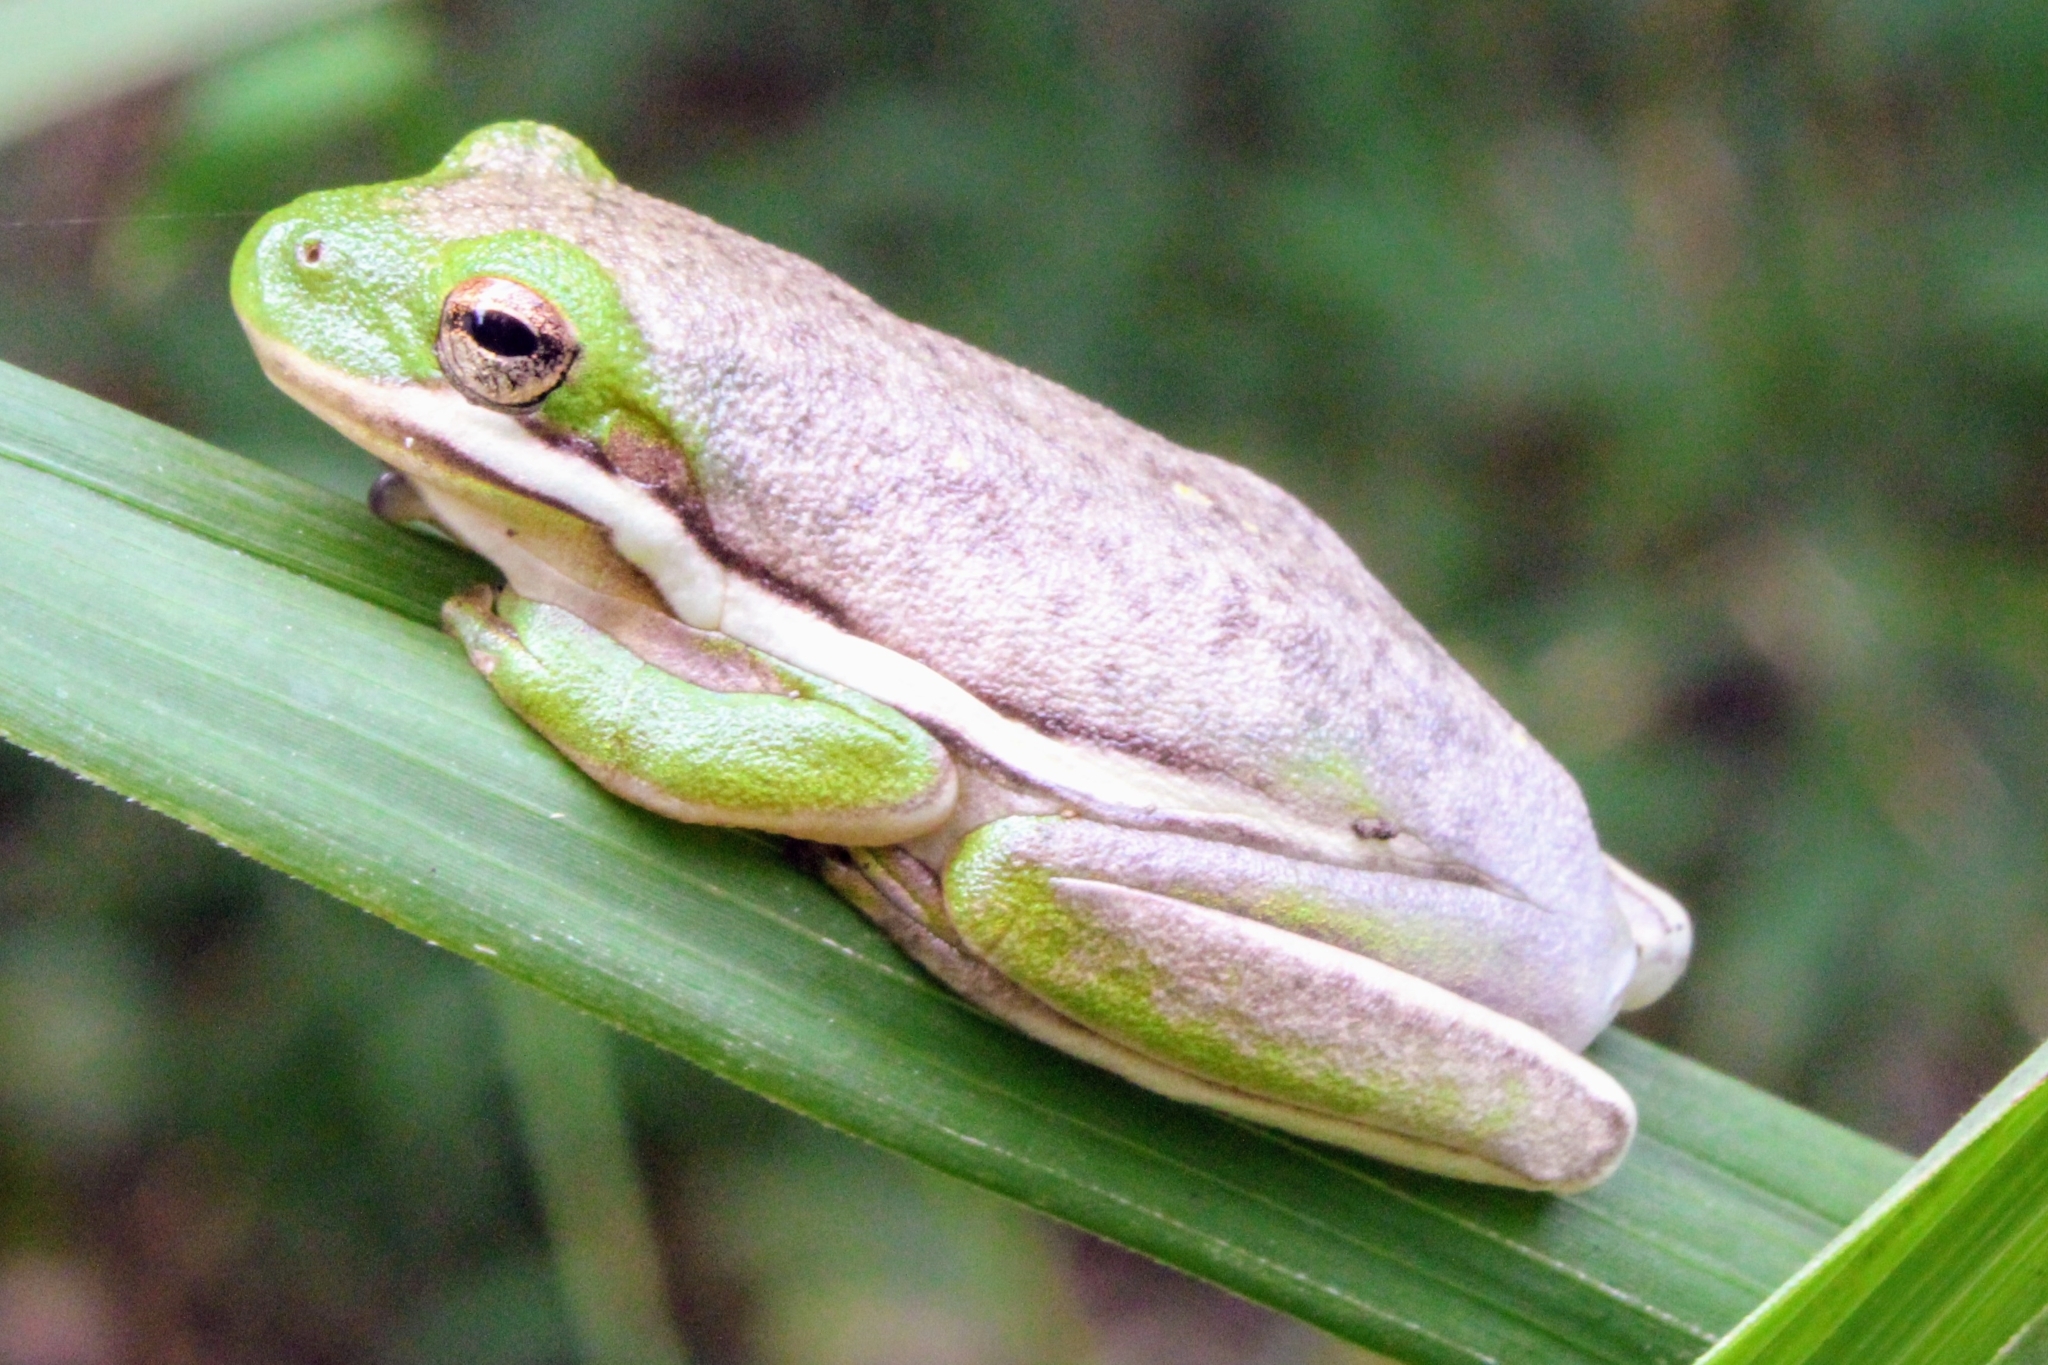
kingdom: Animalia
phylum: Chordata
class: Amphibia
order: Anura
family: Hylidae
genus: Dryophytes
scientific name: Dryophytes cinereus
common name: Green treefrog
